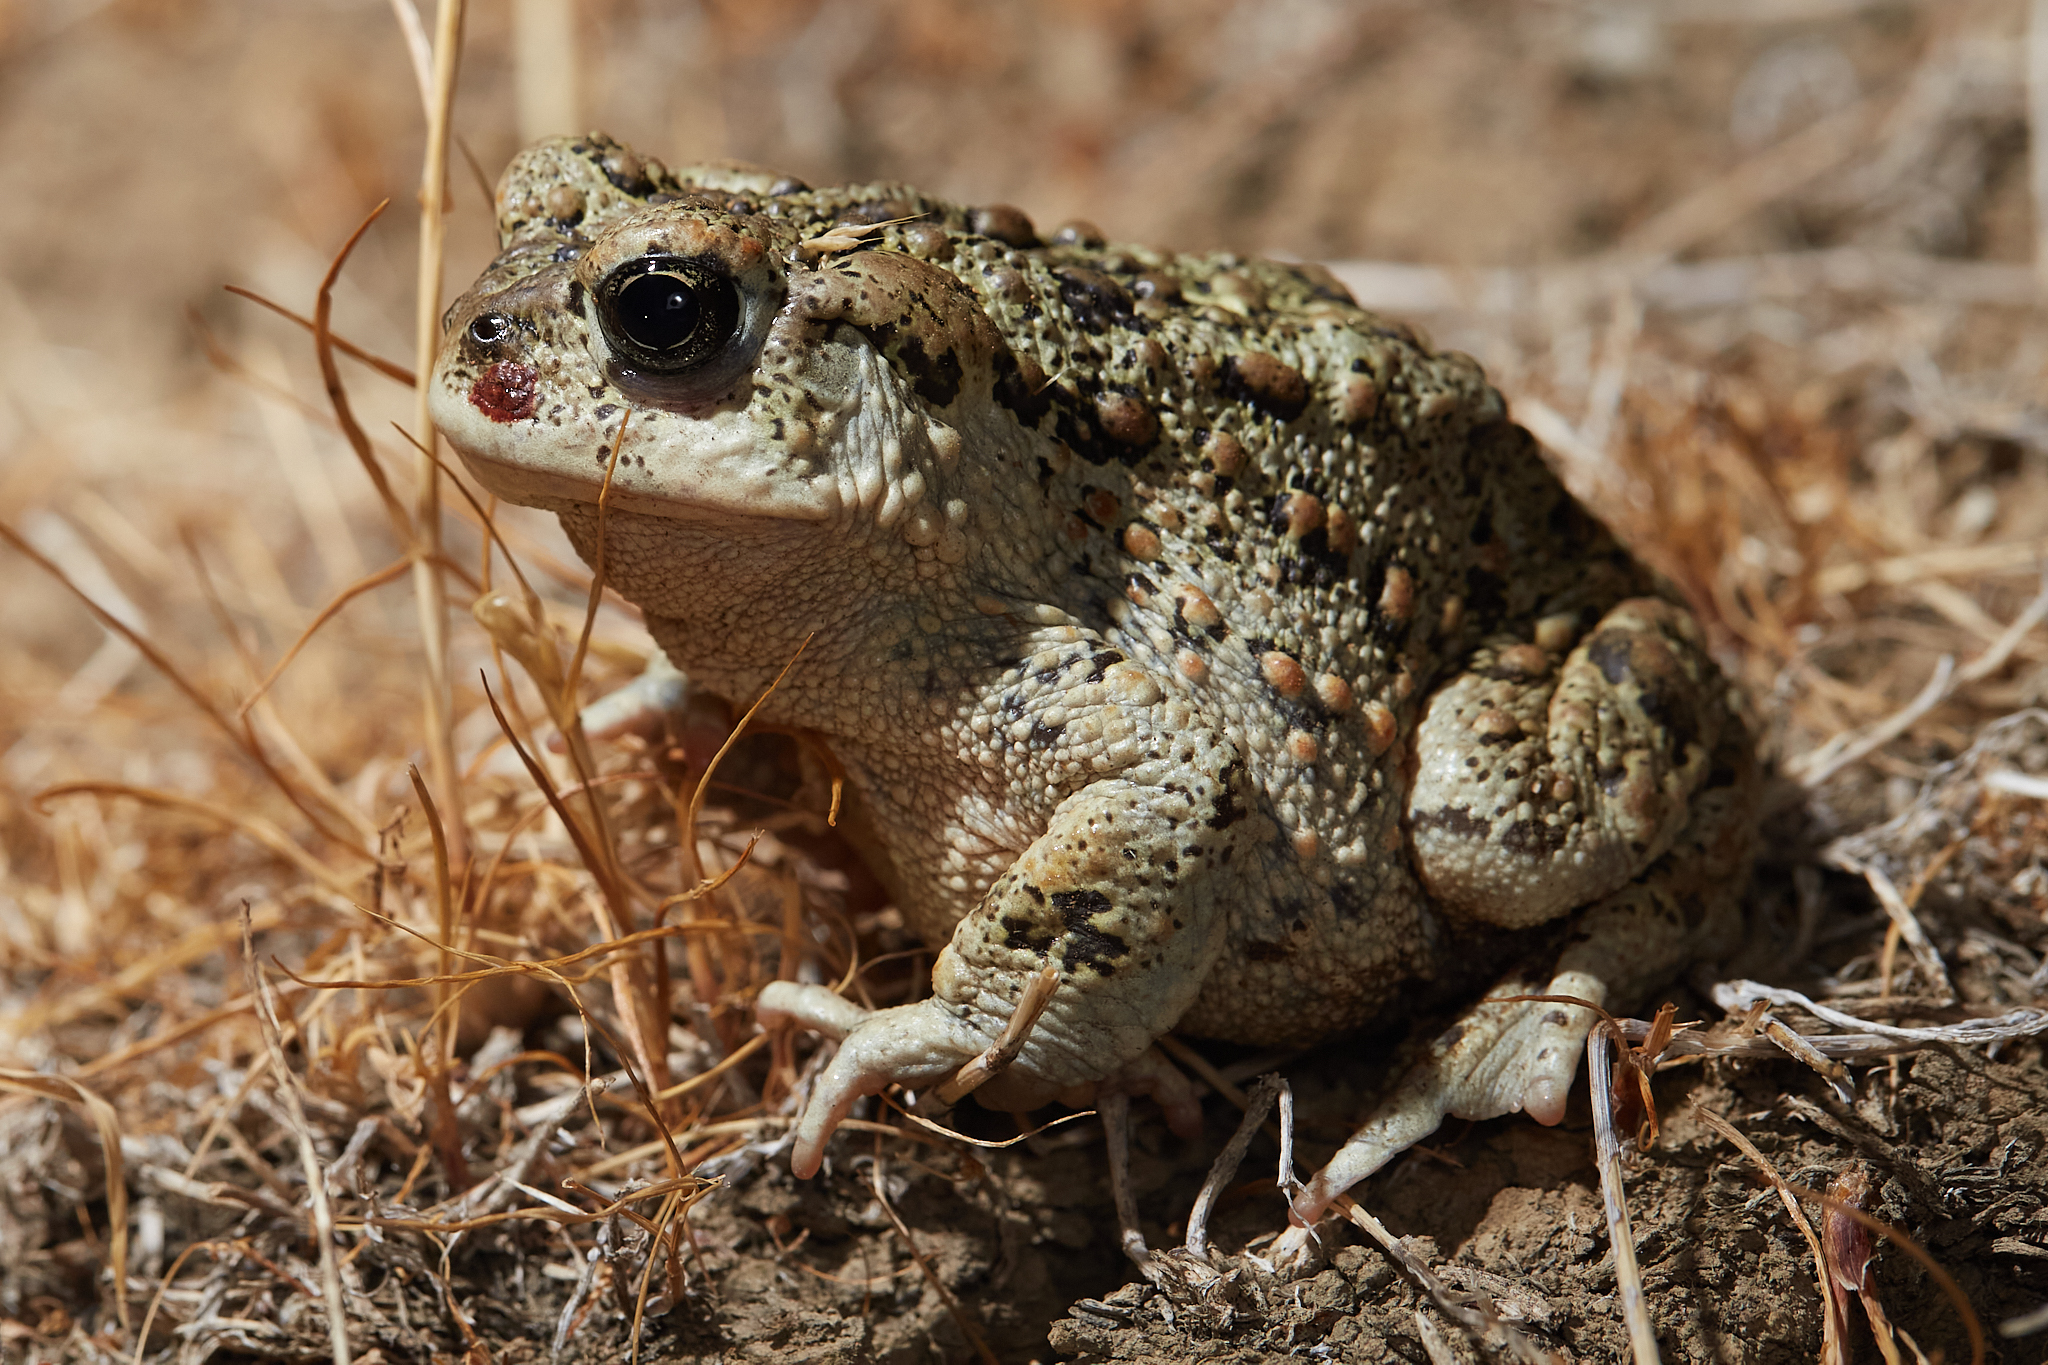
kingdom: Animalia
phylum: Chordata
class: Amphibia
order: Anura
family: Bufonidae
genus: Anaxyrus
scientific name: Anaxyrus boreas
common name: Western toad
